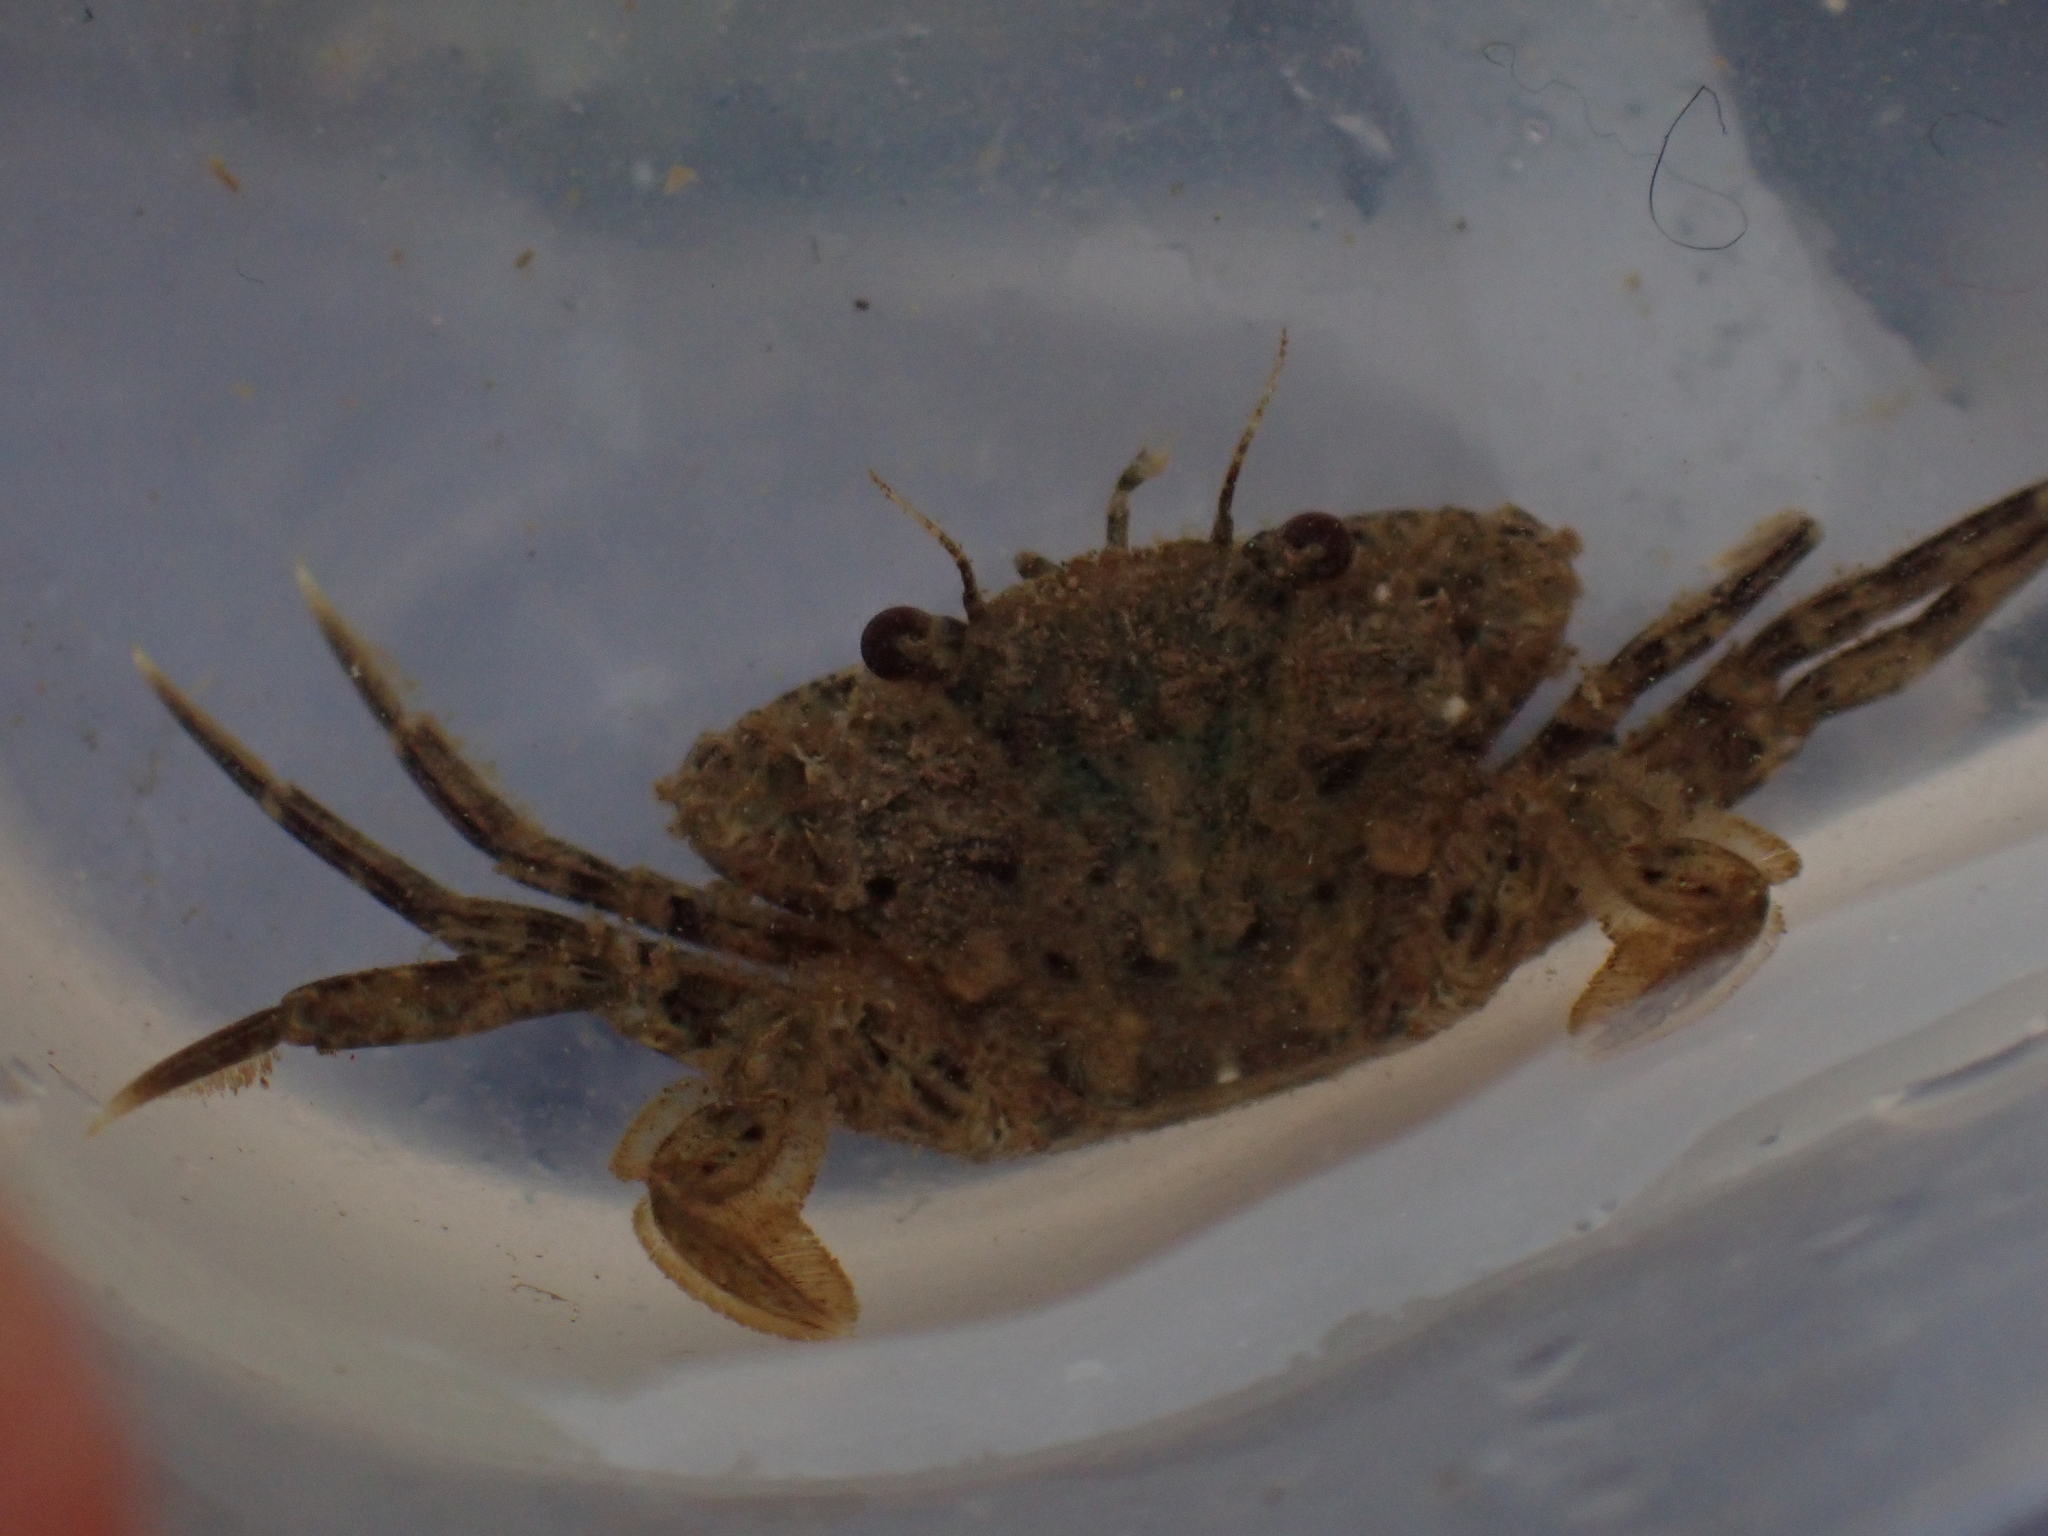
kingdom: Animalia
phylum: Arthropoda
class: Malacostraca
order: Decapoda
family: Polybiidae
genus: Necora
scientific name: Necora puber
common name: Velvet swimming crab
